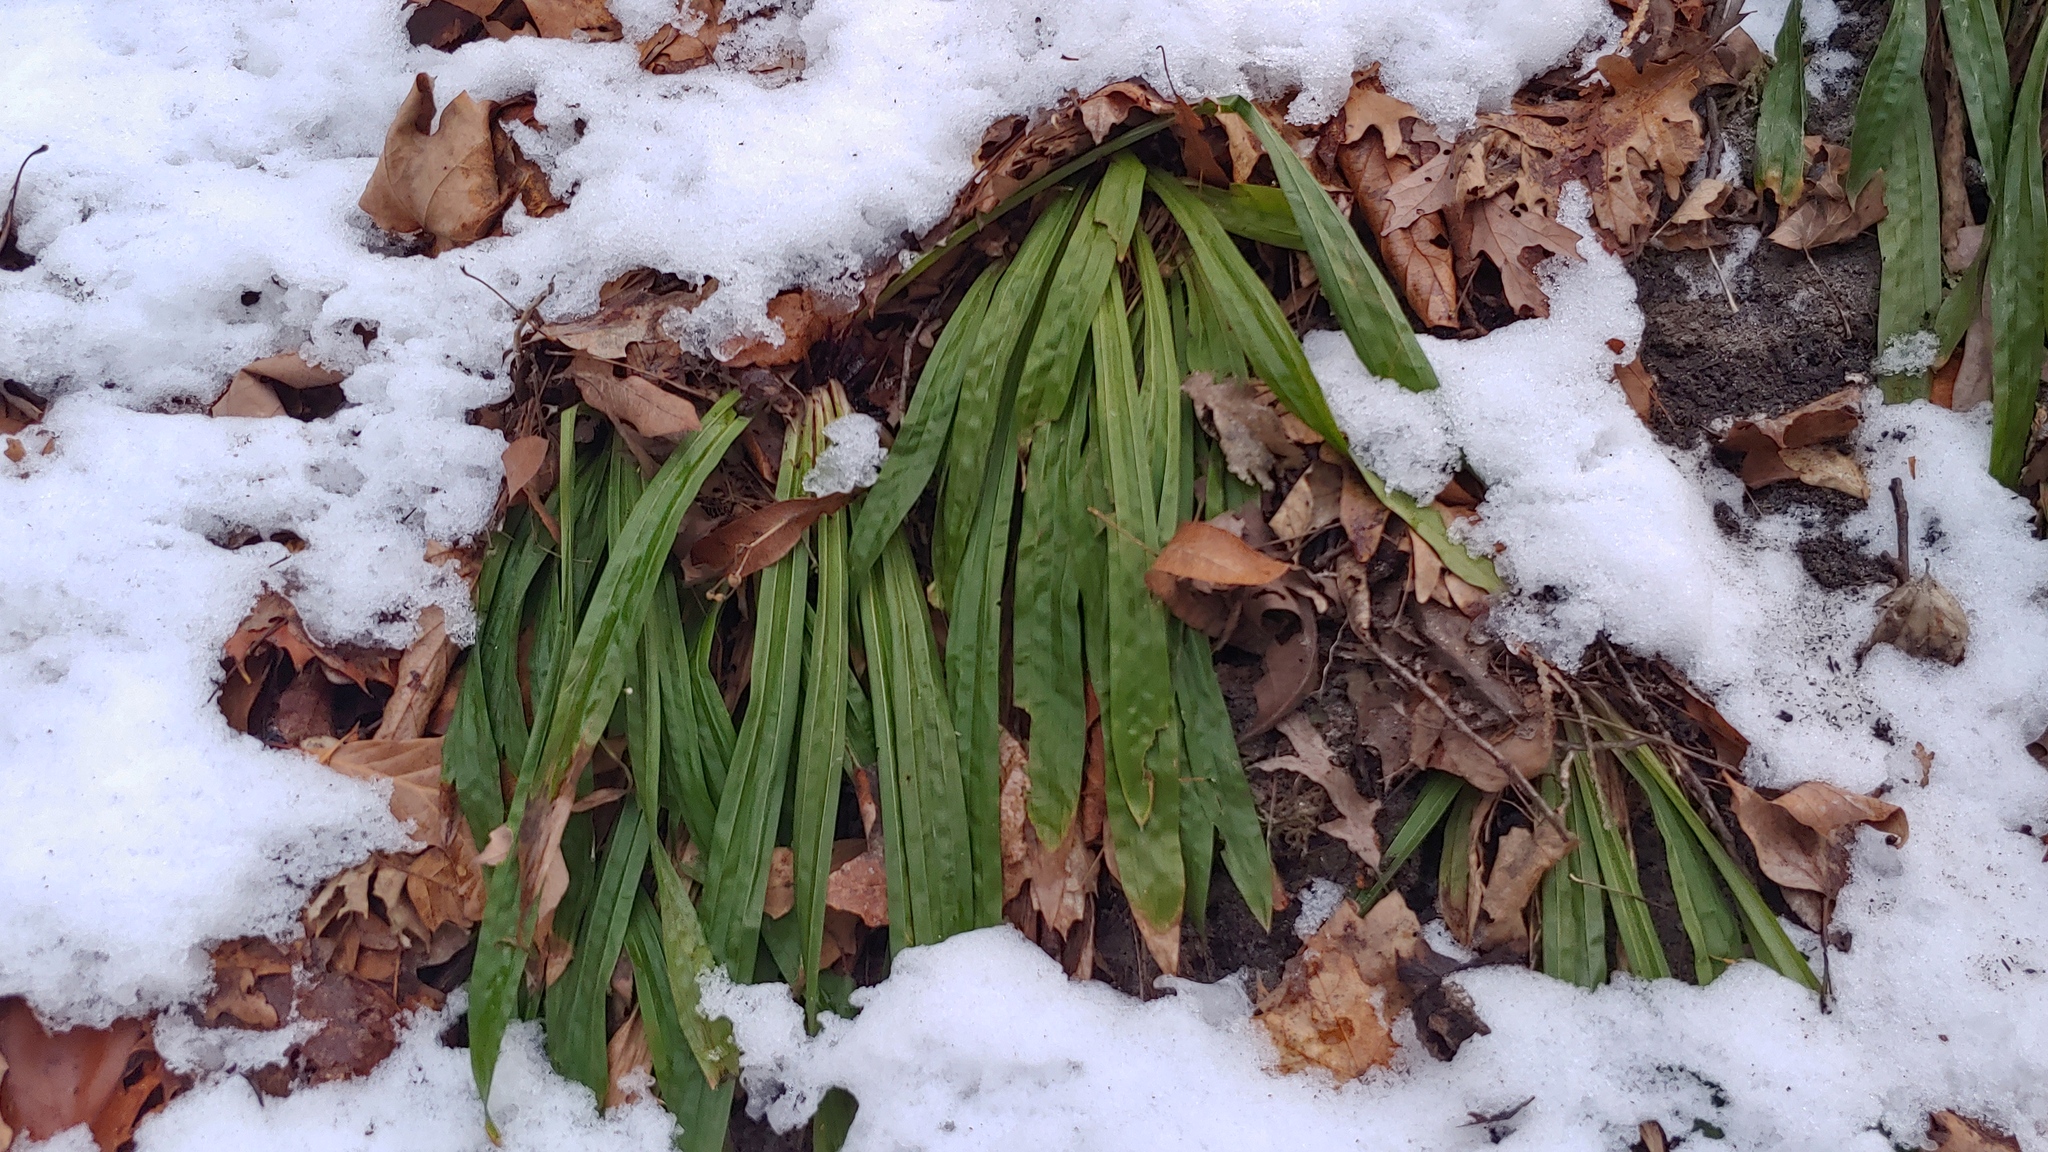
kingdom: Plantae
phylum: Tracheophyta
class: Liliopsida
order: Poales
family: Cyperaceae
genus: Carex
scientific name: Carex plantaginea
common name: Plantain-leaved sedge
